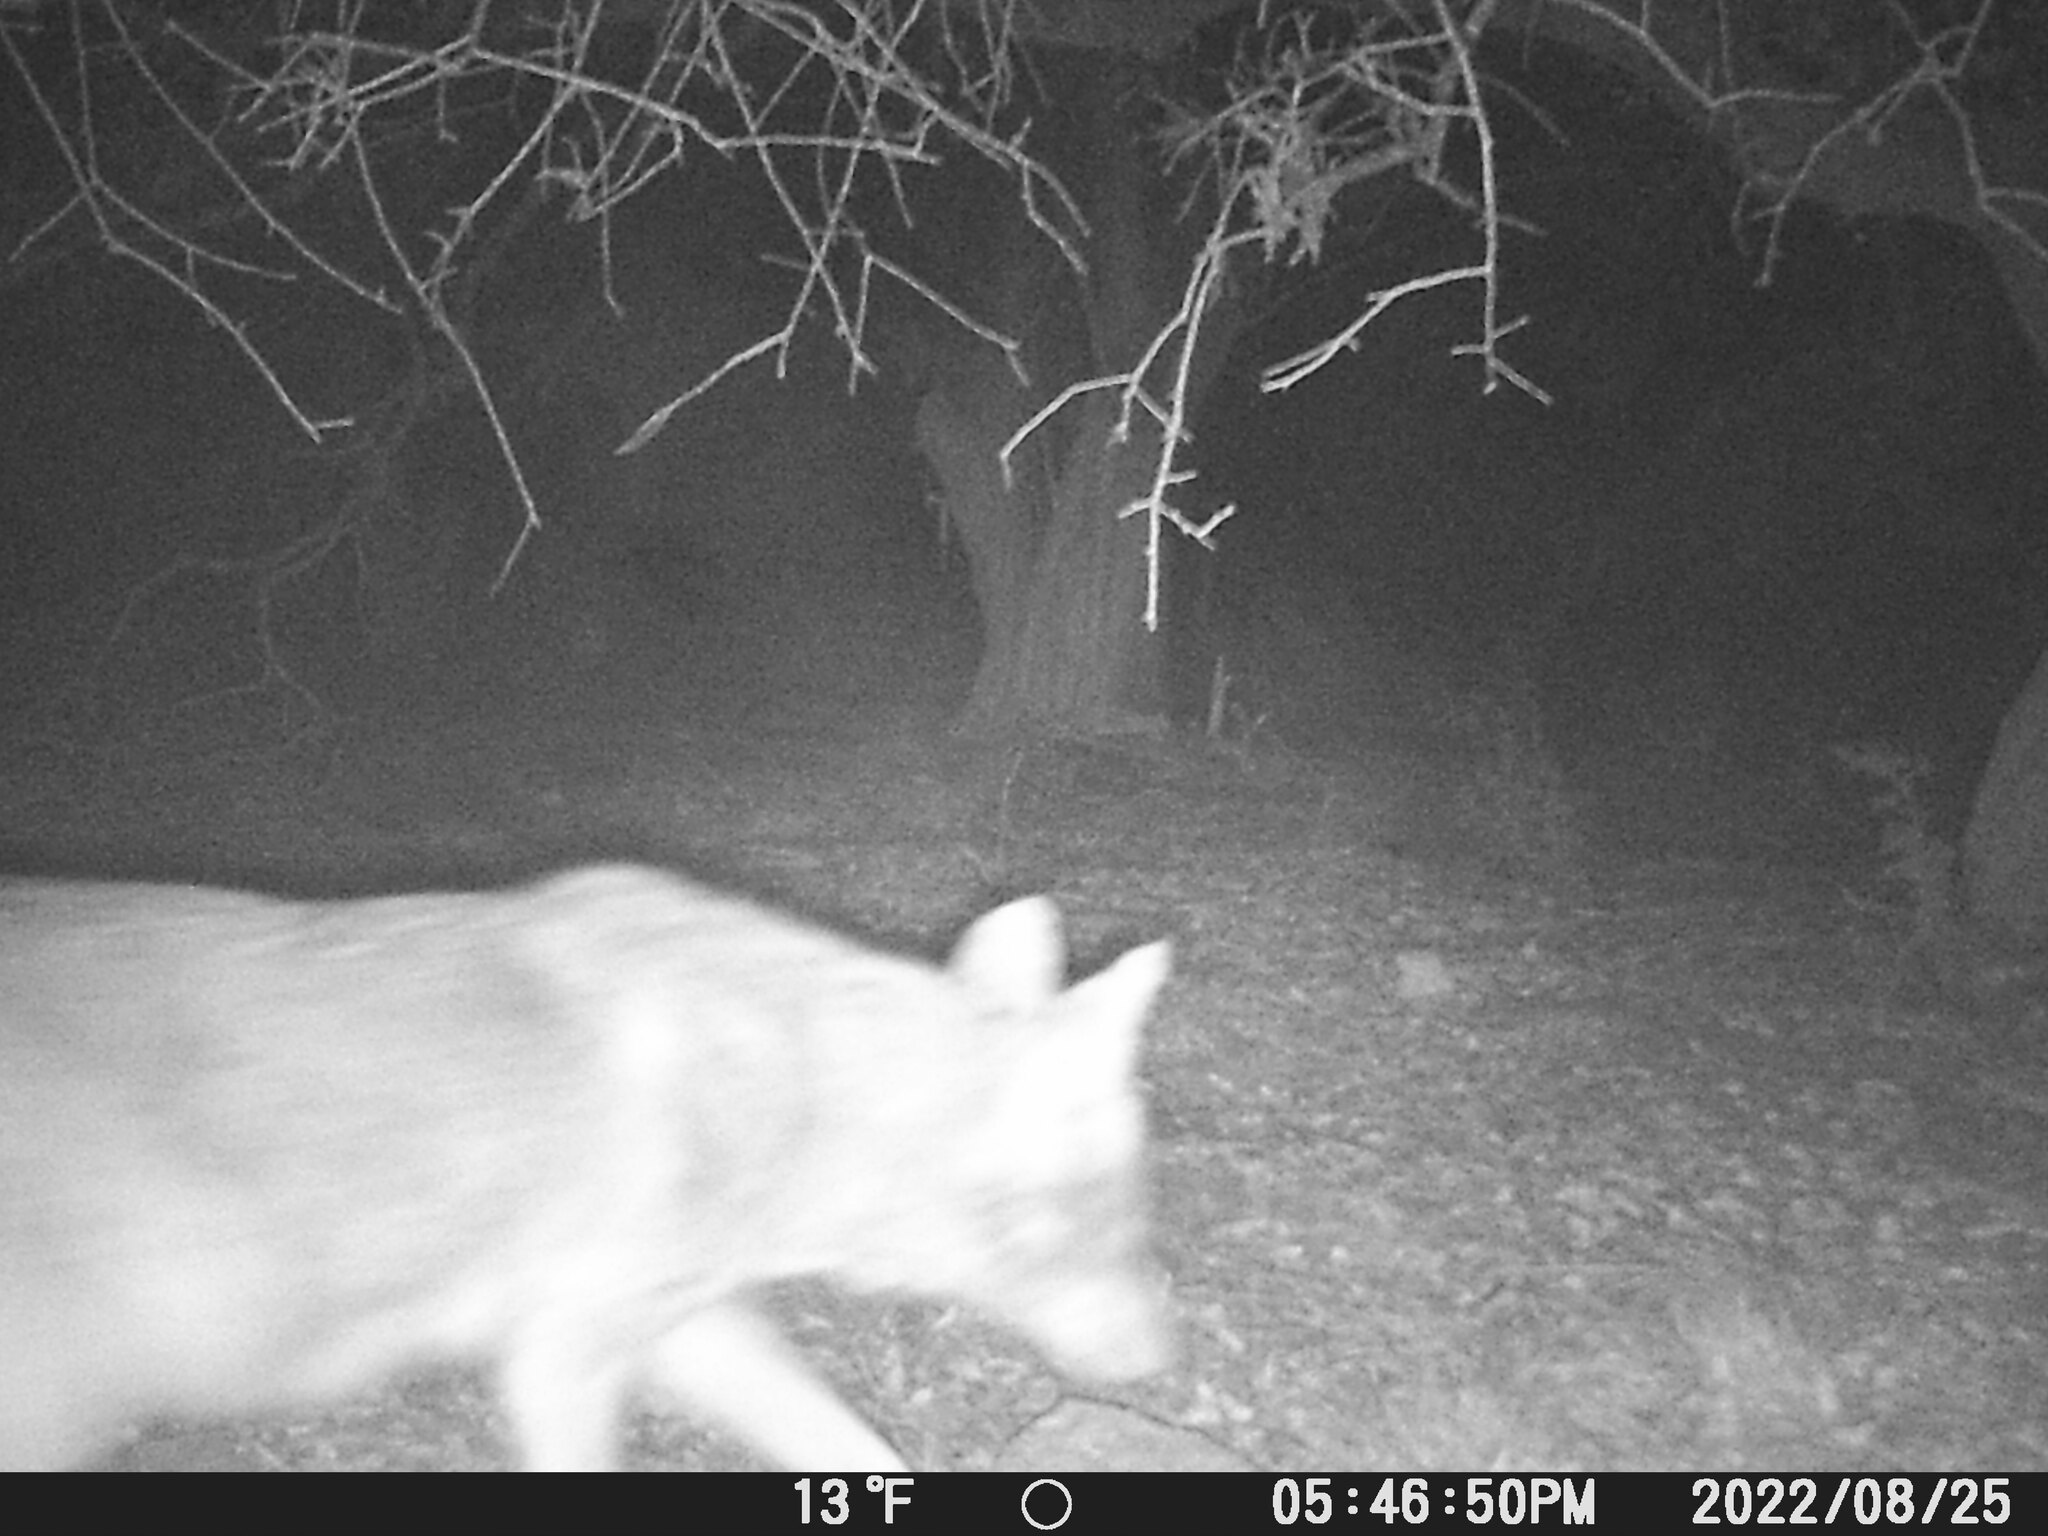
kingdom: Animalia
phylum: Chordata
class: Mammalia
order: Carnivora
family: Canidae
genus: Canis
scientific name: Canis latrans
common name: Coyote
